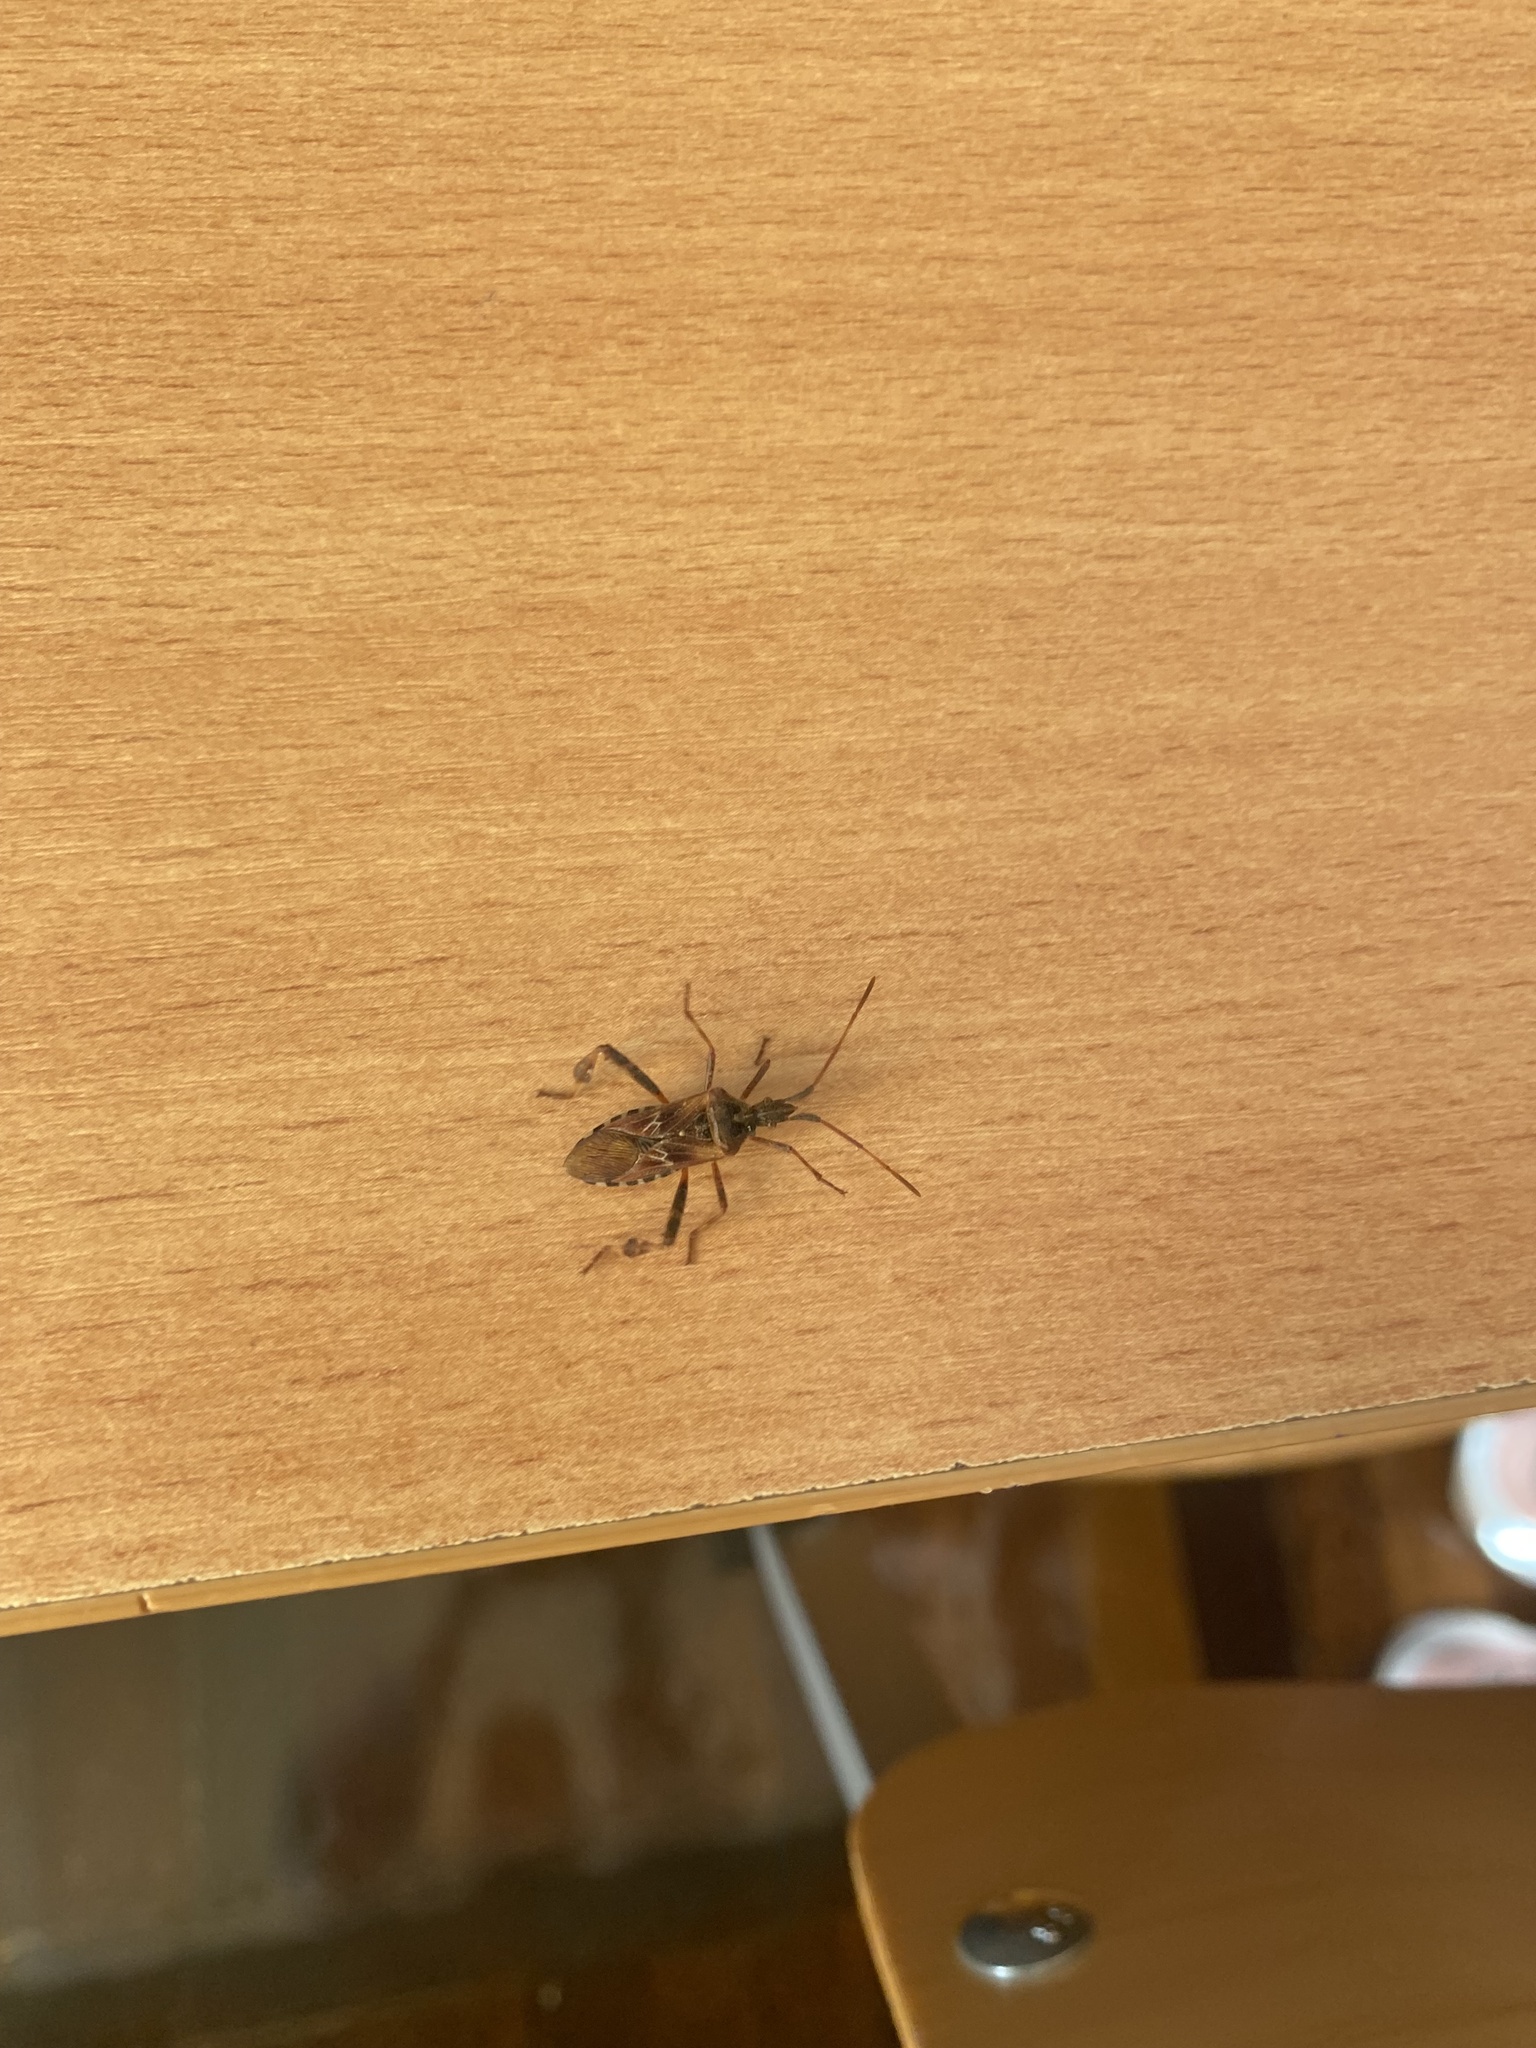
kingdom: Animalia
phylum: Arthropoda
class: Insecta
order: Hemiptera
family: Coreidae
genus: Leptoglossus
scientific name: Leptoglossus occidentalis
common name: Western conifer-seed bug
